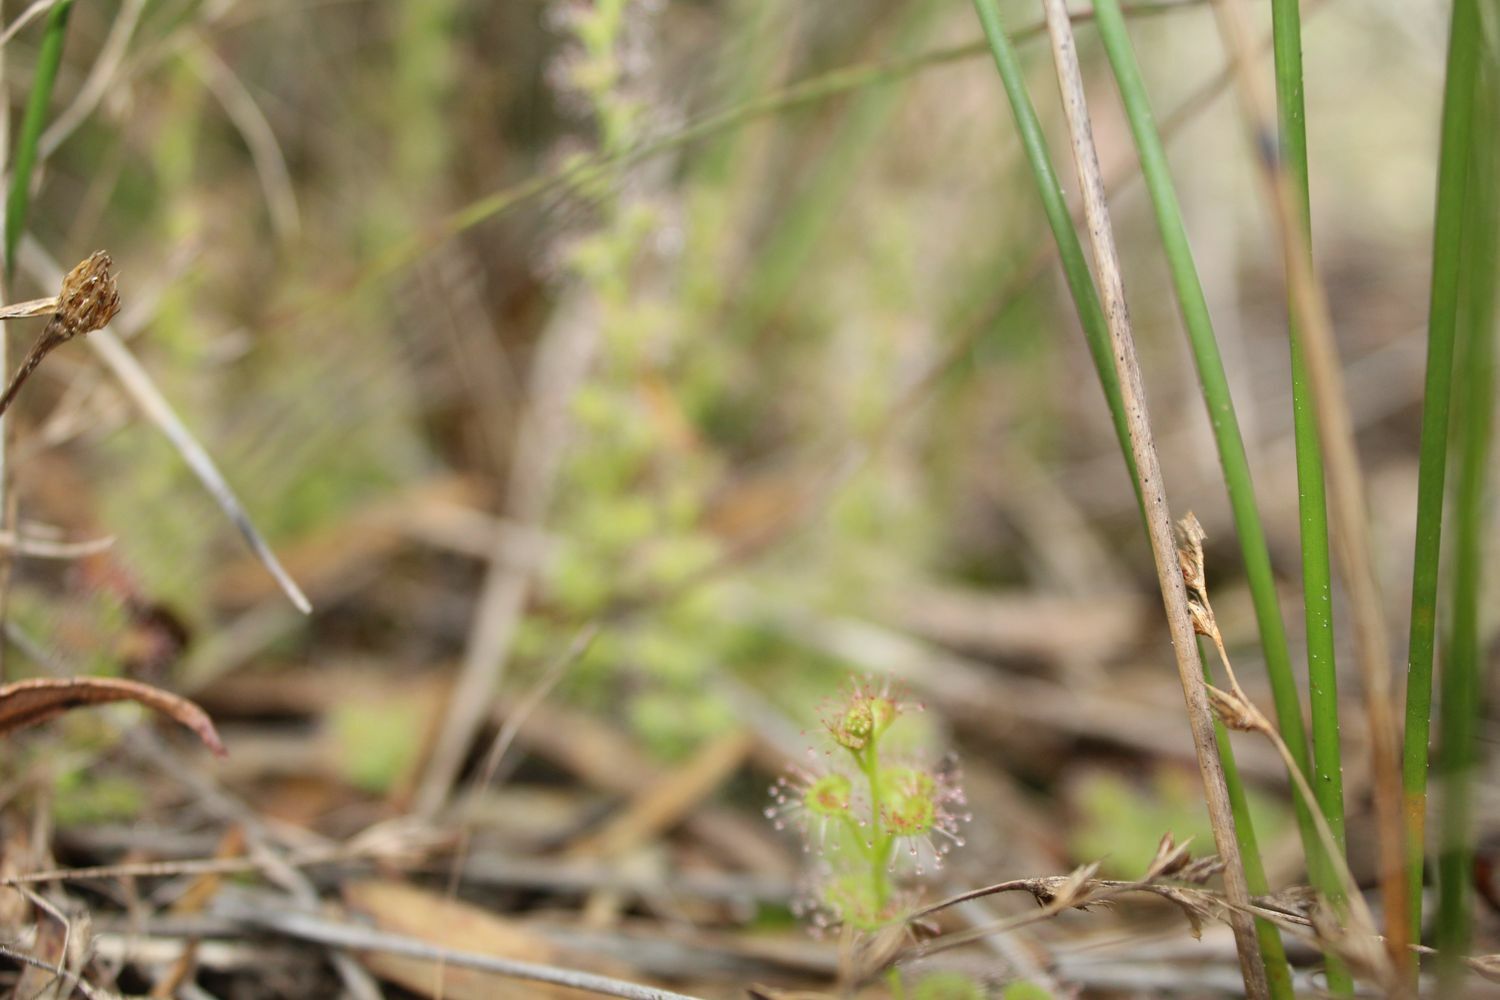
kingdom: Plantae
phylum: Tracheophyta
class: Magnoliopsida
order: Caryophyllales
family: Droseraceae
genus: Drosera
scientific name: Drosera platypoda
